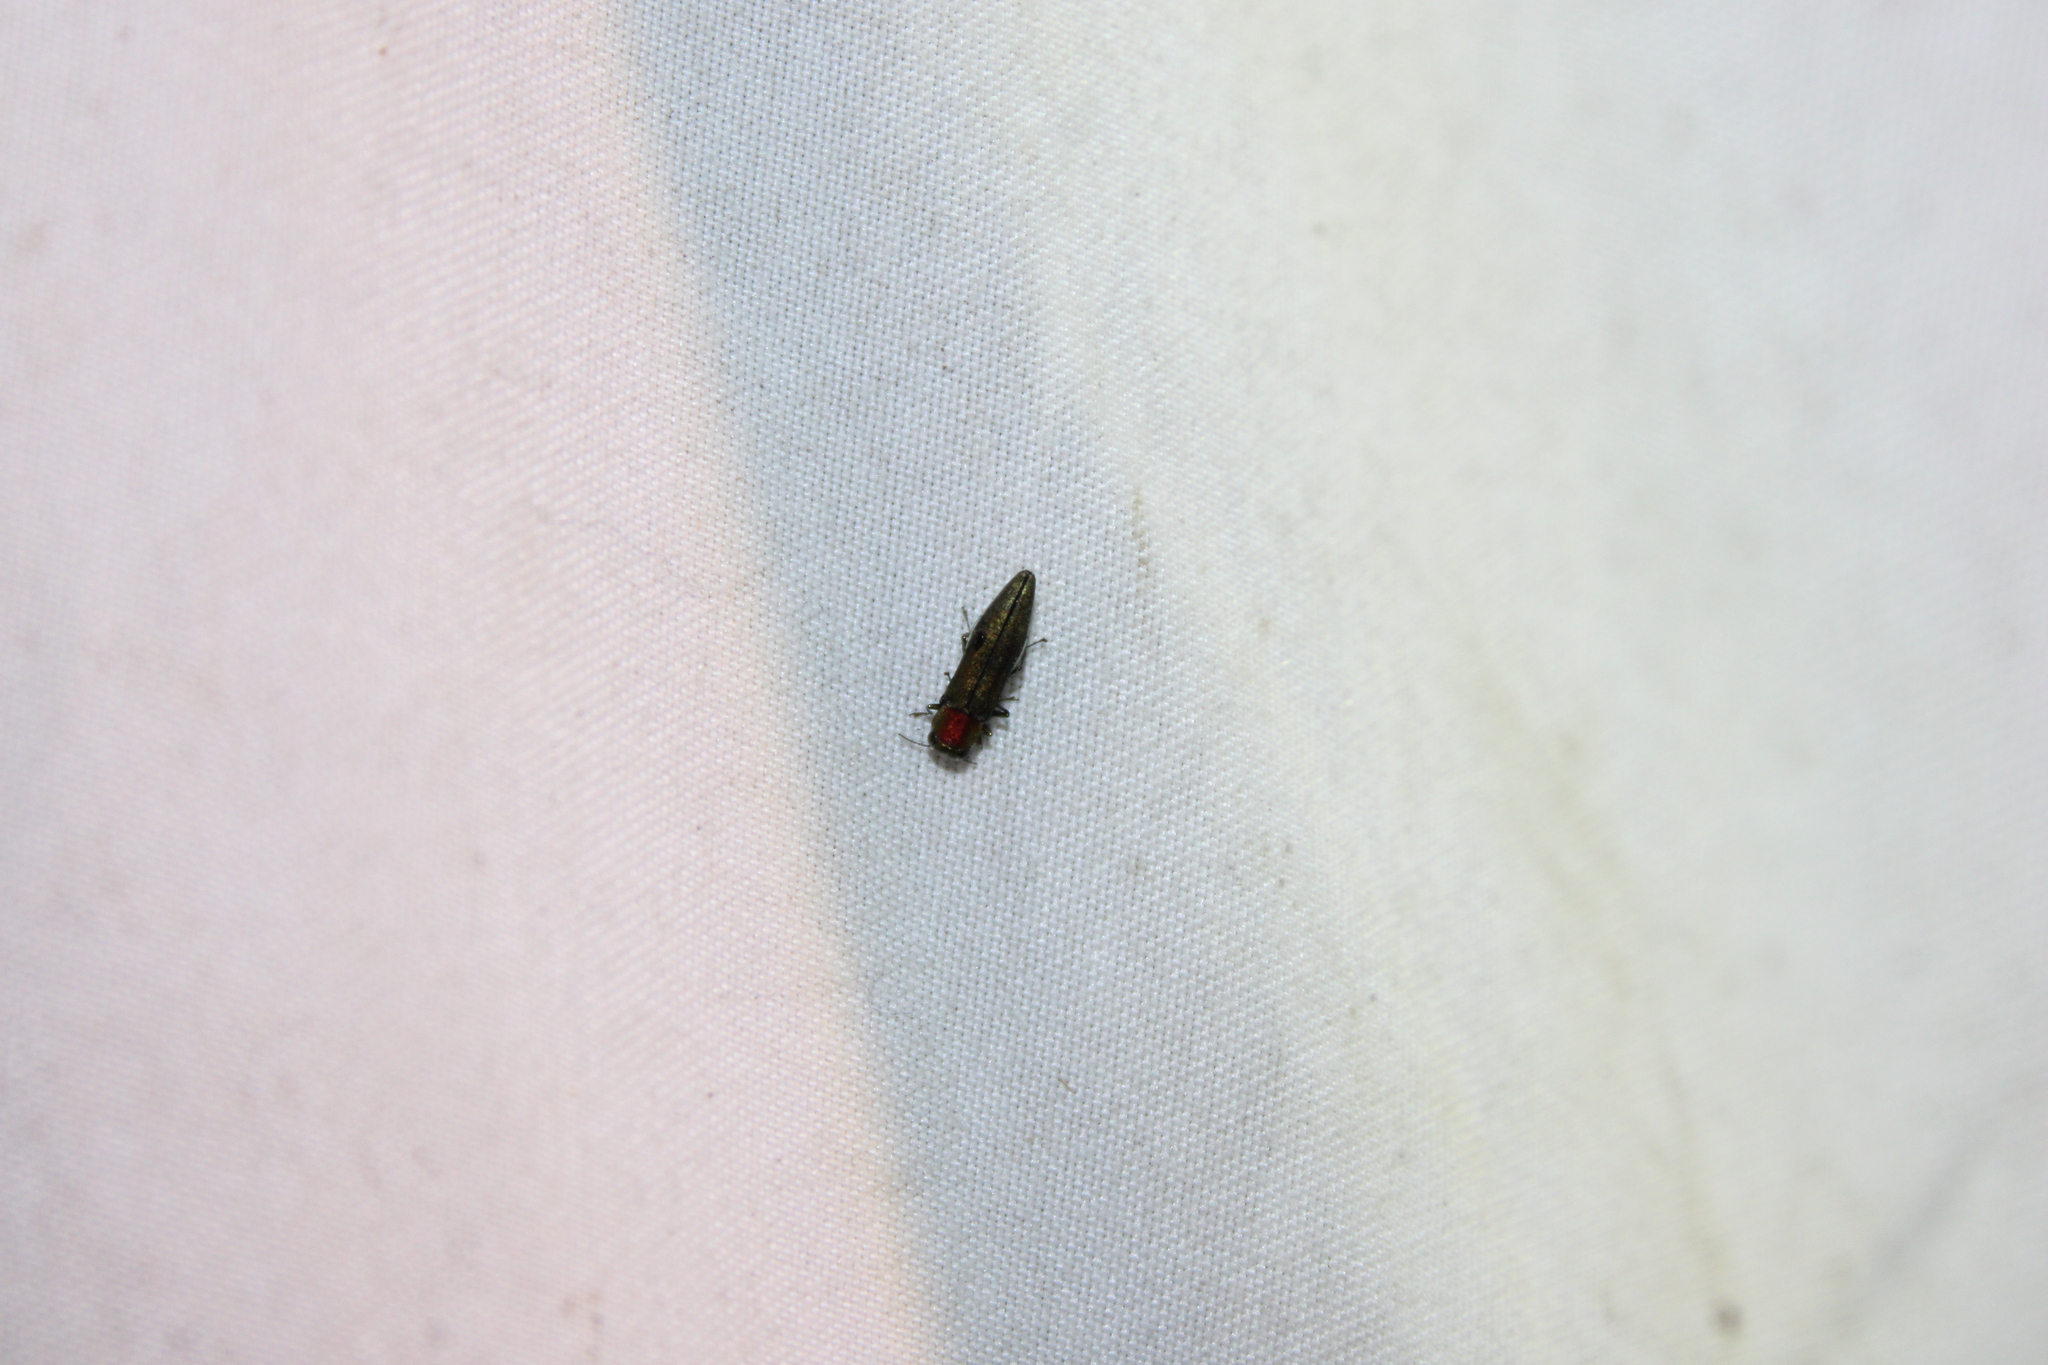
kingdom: Animalia
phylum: Arthropoda
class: Insecta
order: Coleoptera
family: Buprestidae
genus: Agrilus
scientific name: Agrilus smaragdifrons
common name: East asian buprestid
